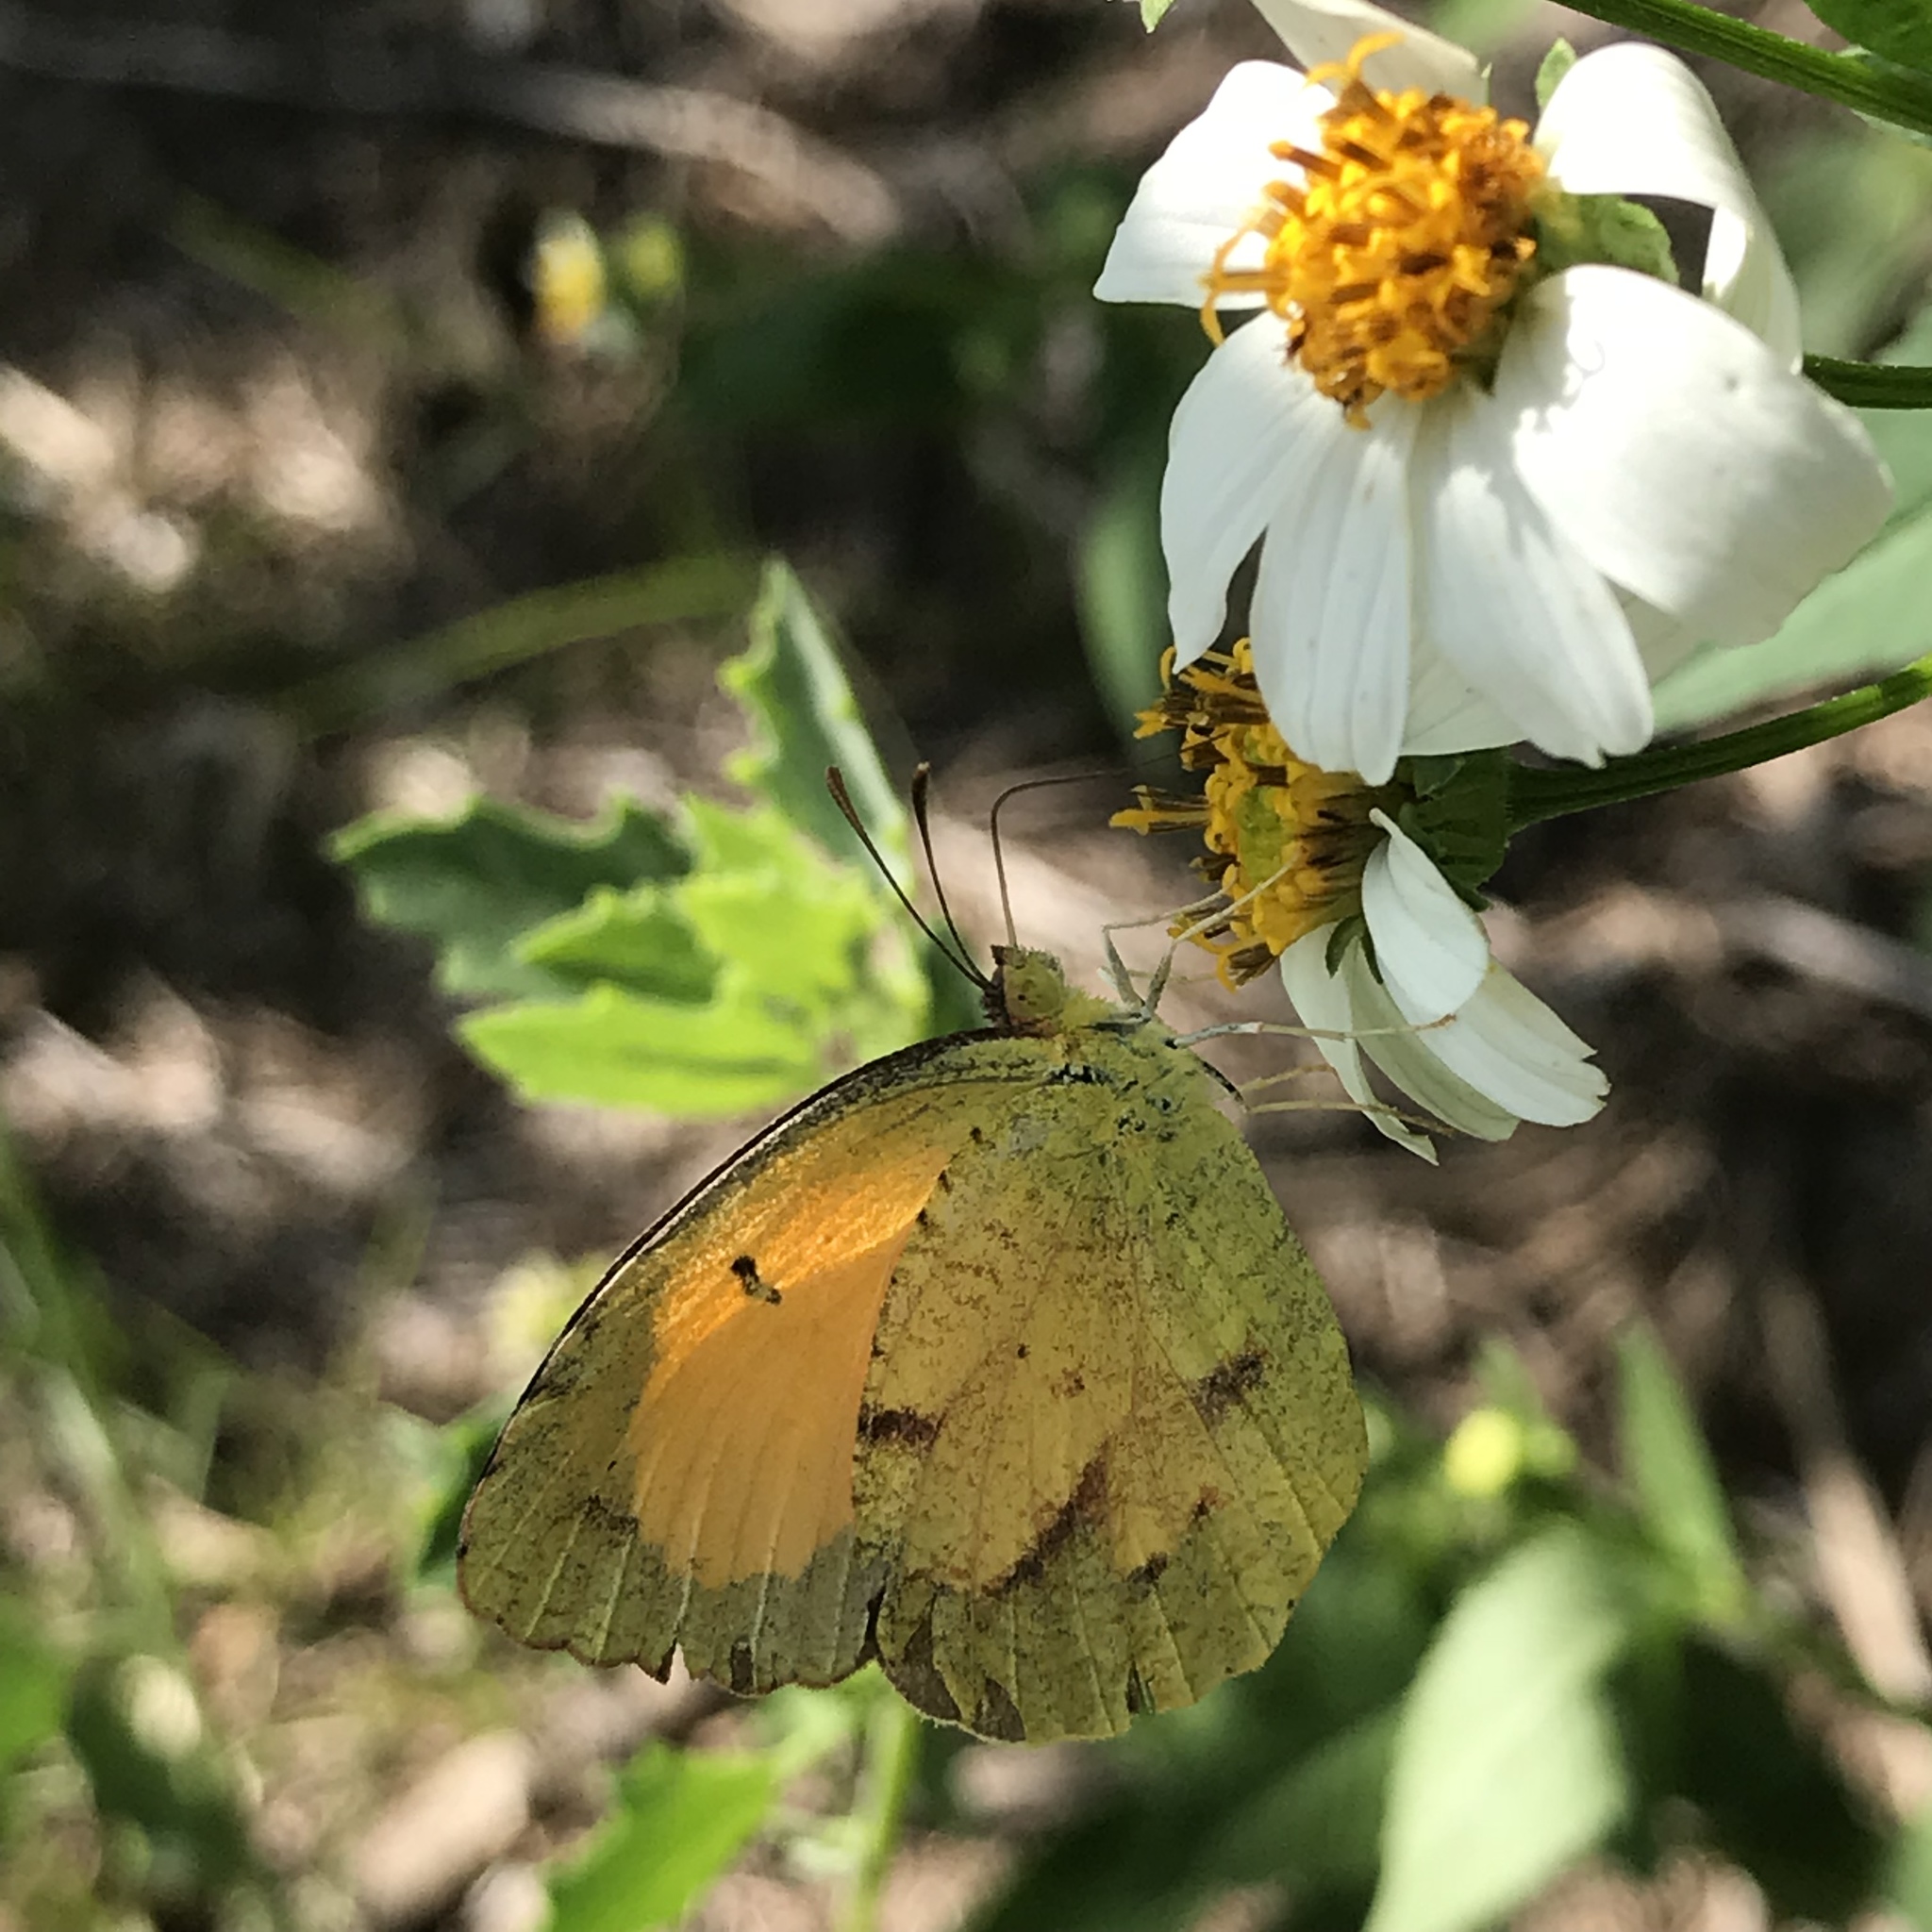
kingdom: Animalia
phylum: Arthropoda
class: Insecta
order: Lepidoptera
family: Pieridae
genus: Abaeis
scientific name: Abaeis nicippe
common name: Sleepy orange
